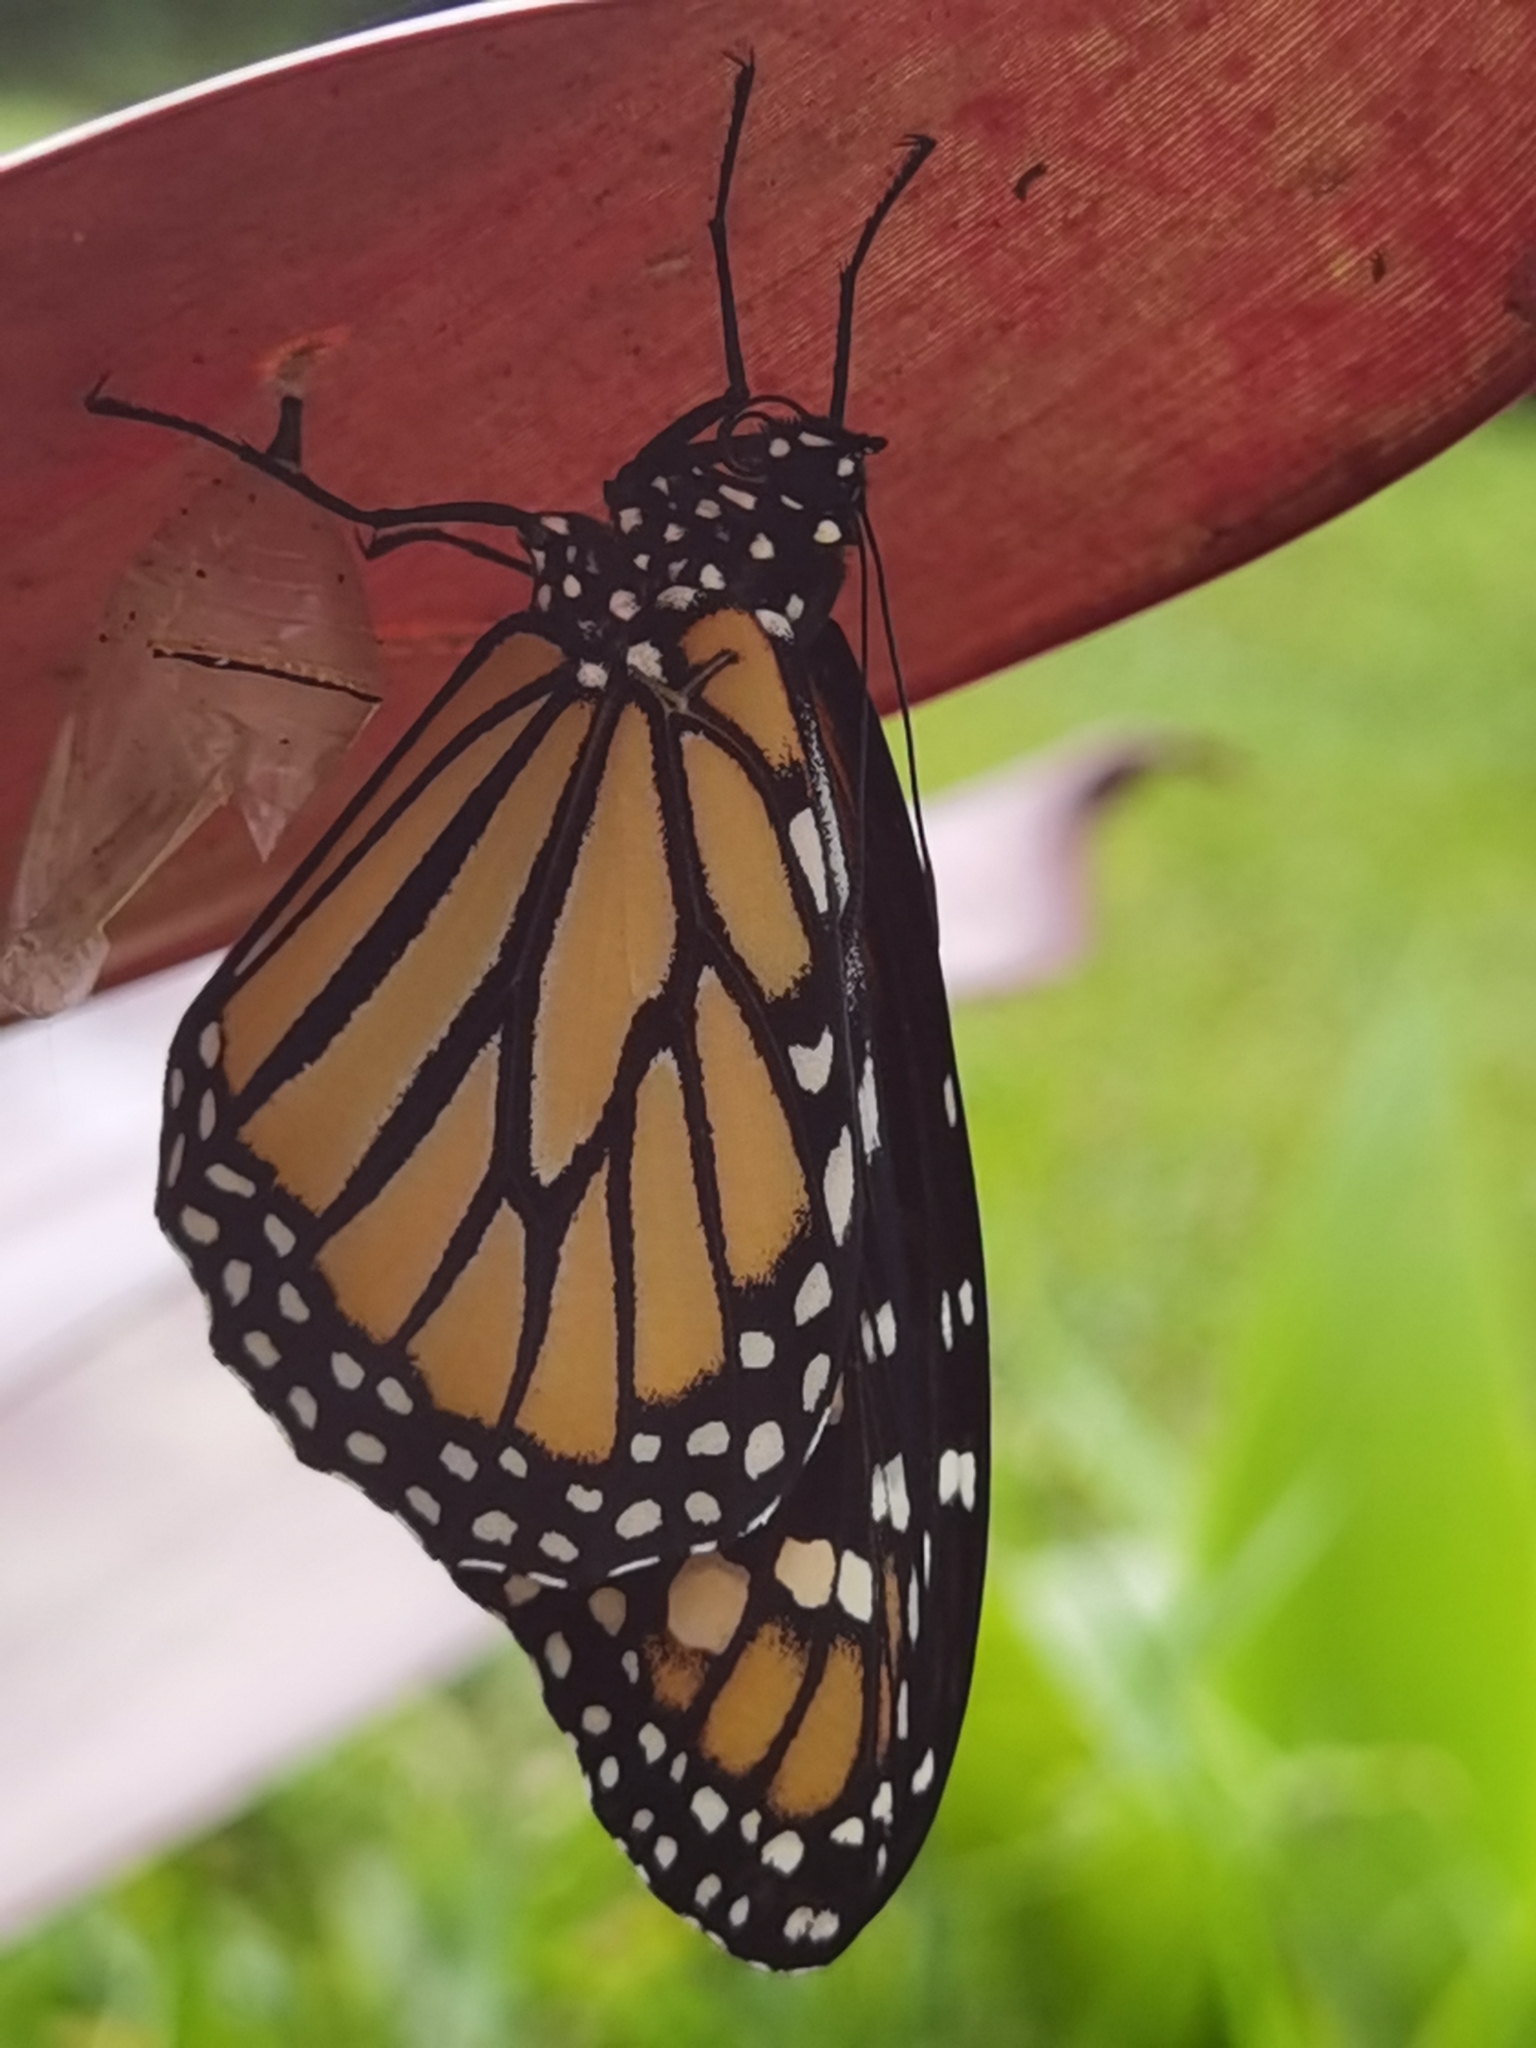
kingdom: Animalia
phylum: Arthropoda
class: Insecta
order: Lepidoptera
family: Nymphalidae
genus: Danaus
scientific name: Danaus plexippus
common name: Monarch
